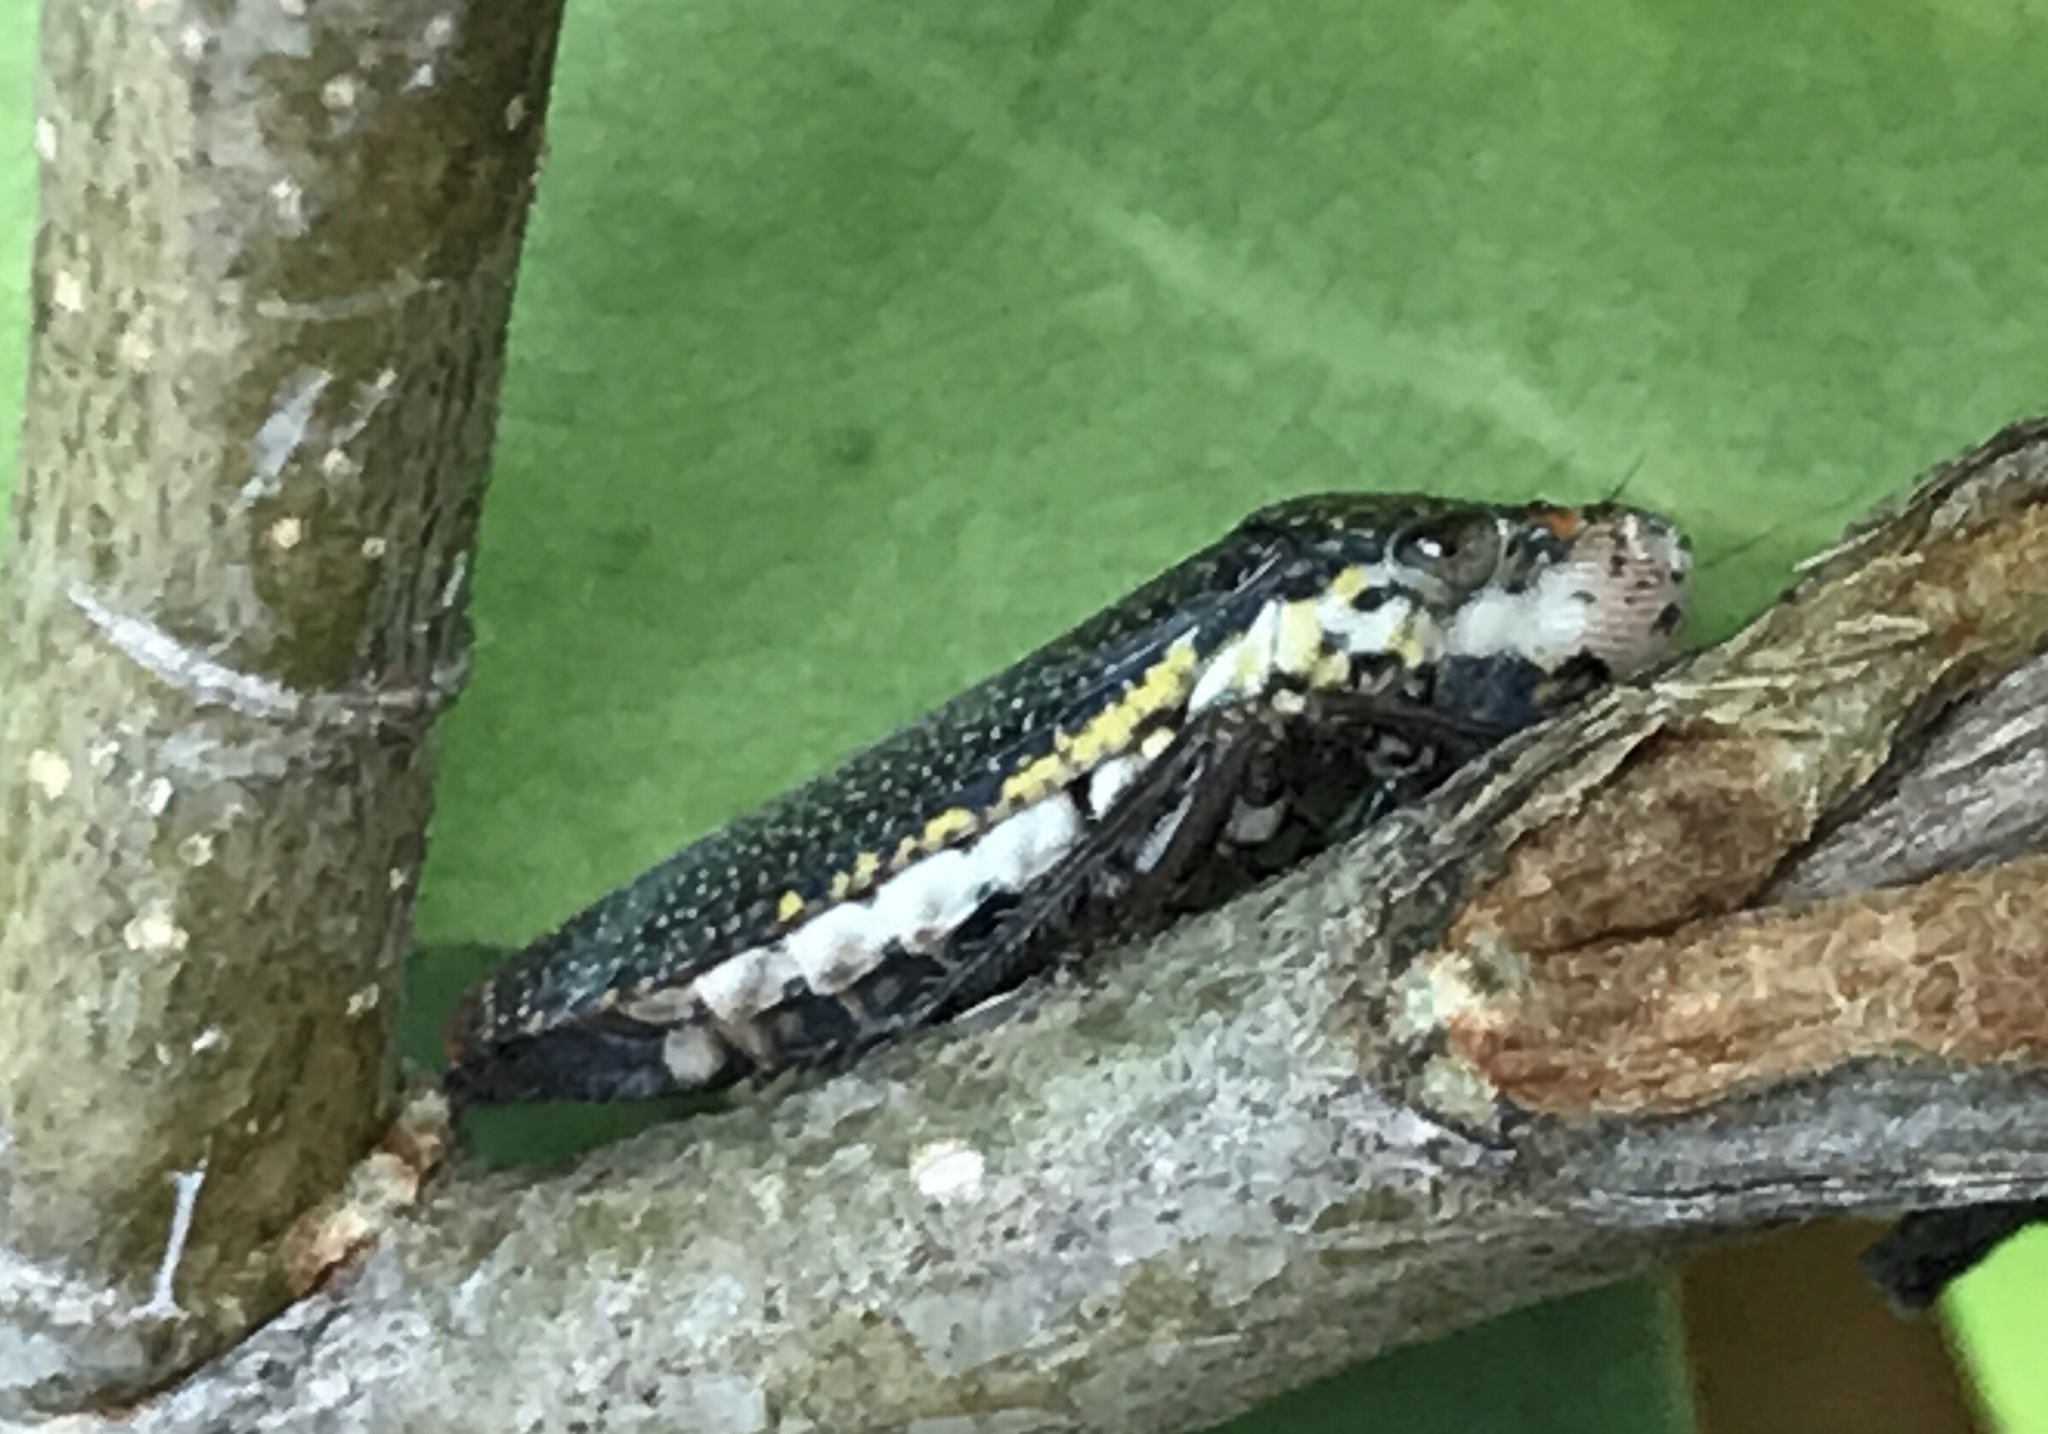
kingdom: Animalia
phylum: Arthropoda
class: Insecta
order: Hemiptera
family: Cicadellidae
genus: Paraulacizes
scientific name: Paraulacizes irrorata
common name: Speckled sharpshooter
